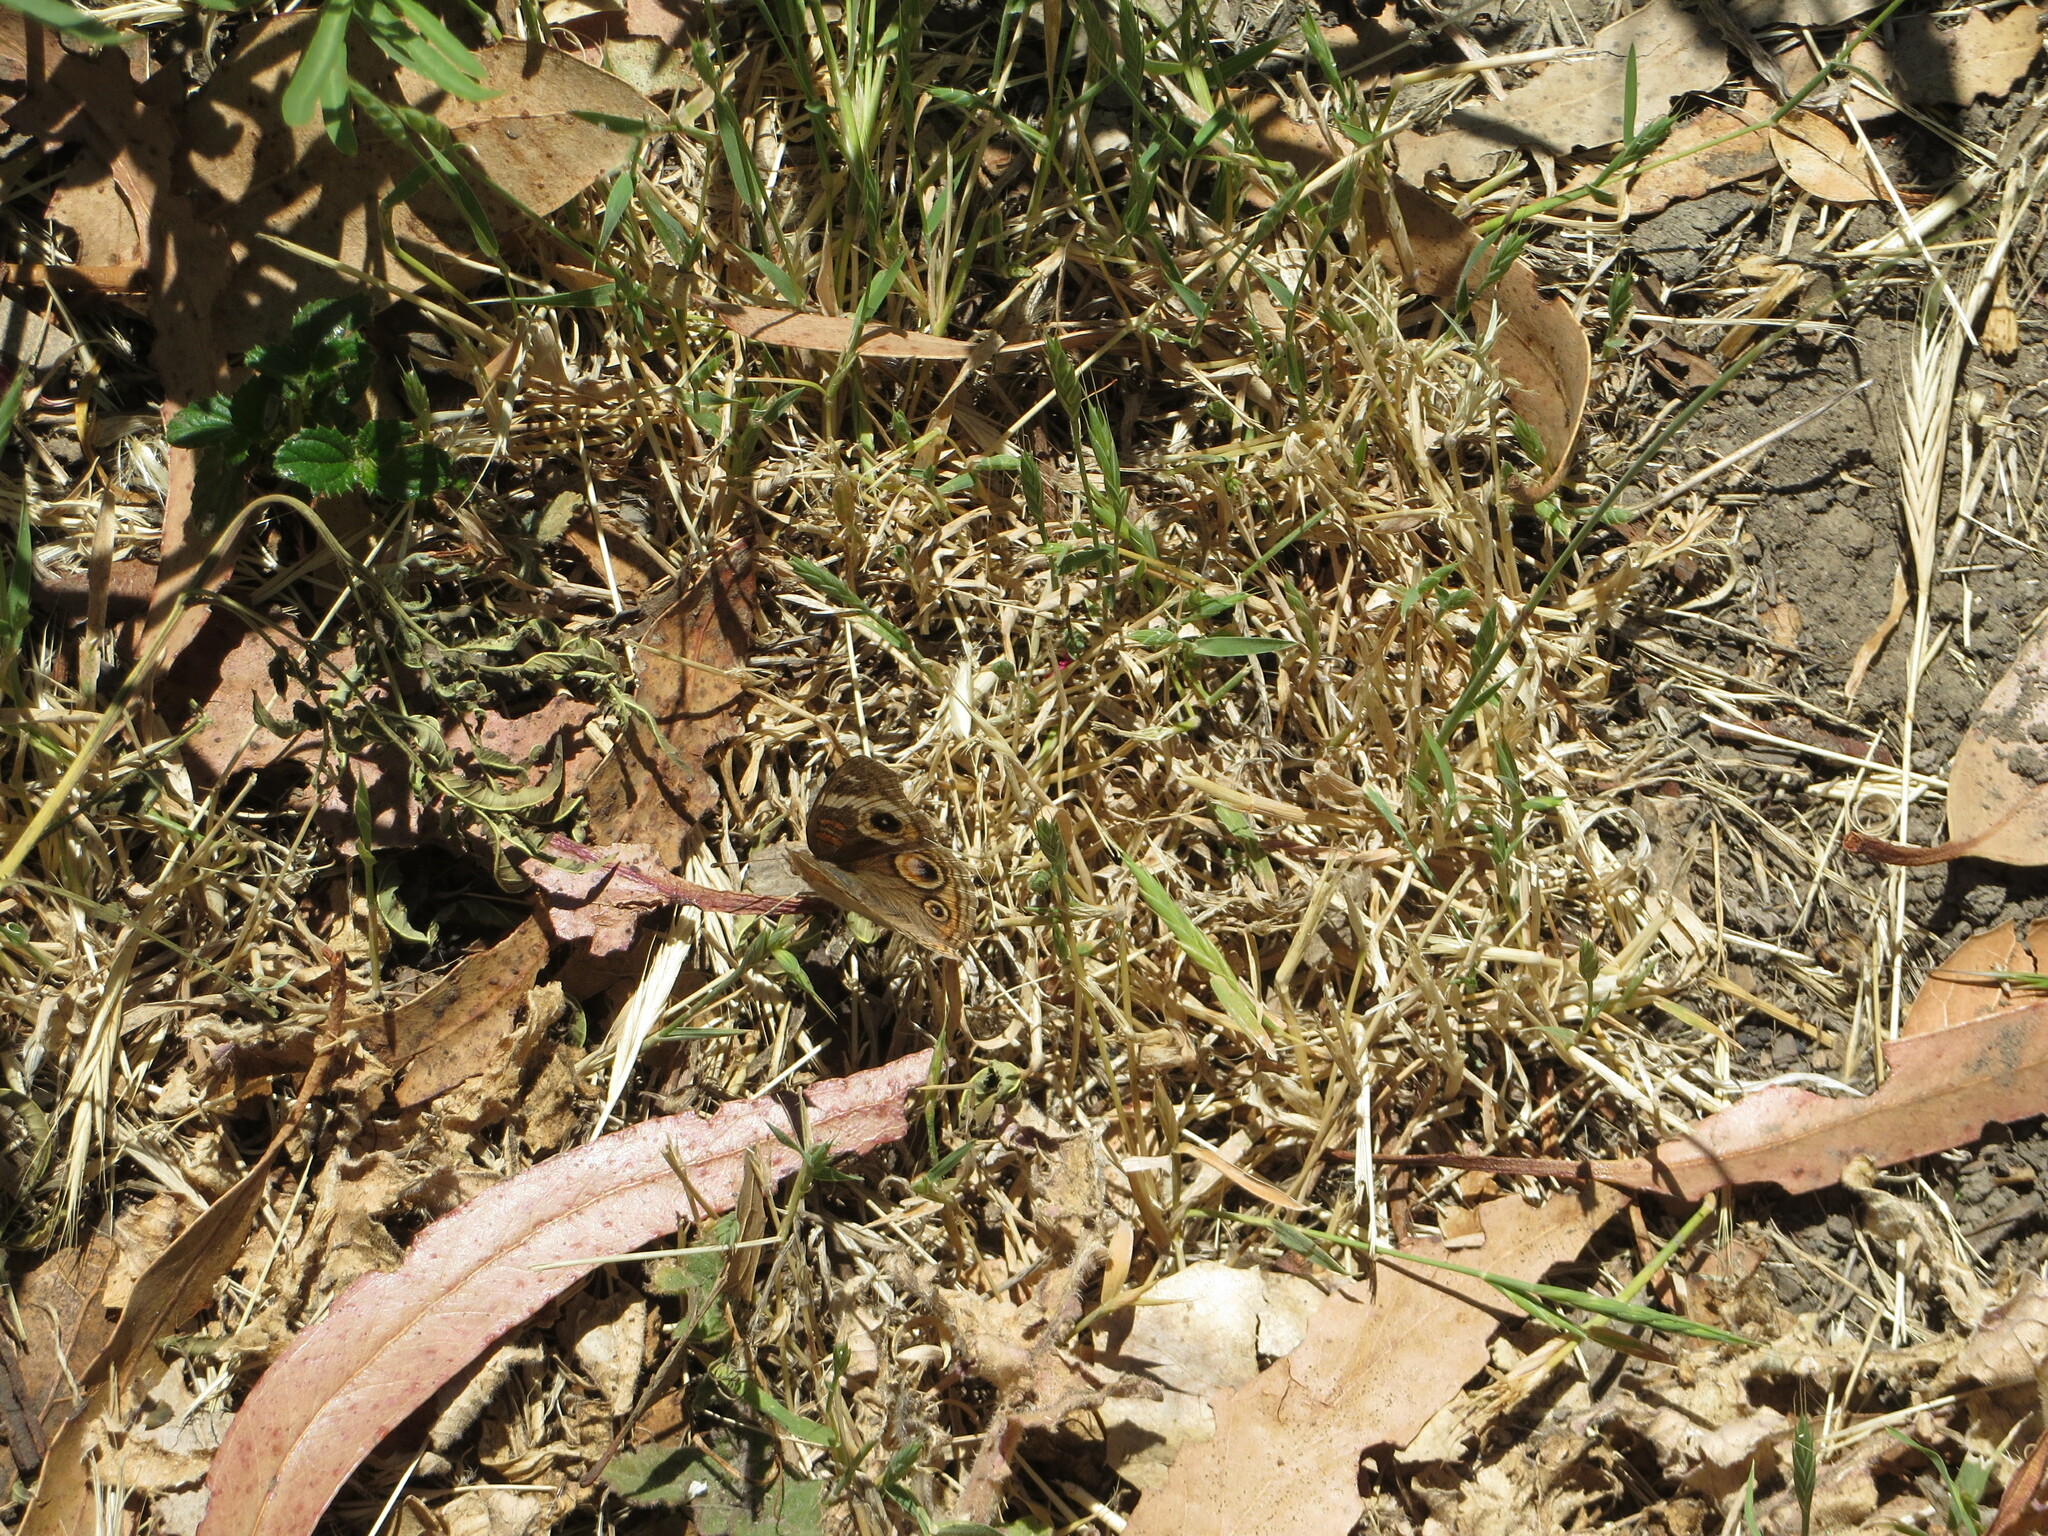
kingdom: Animalia
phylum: Arthropoda
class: Insecta
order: Lepidoptera
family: Nymphalidae
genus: Junonia
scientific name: Junonia grisea
